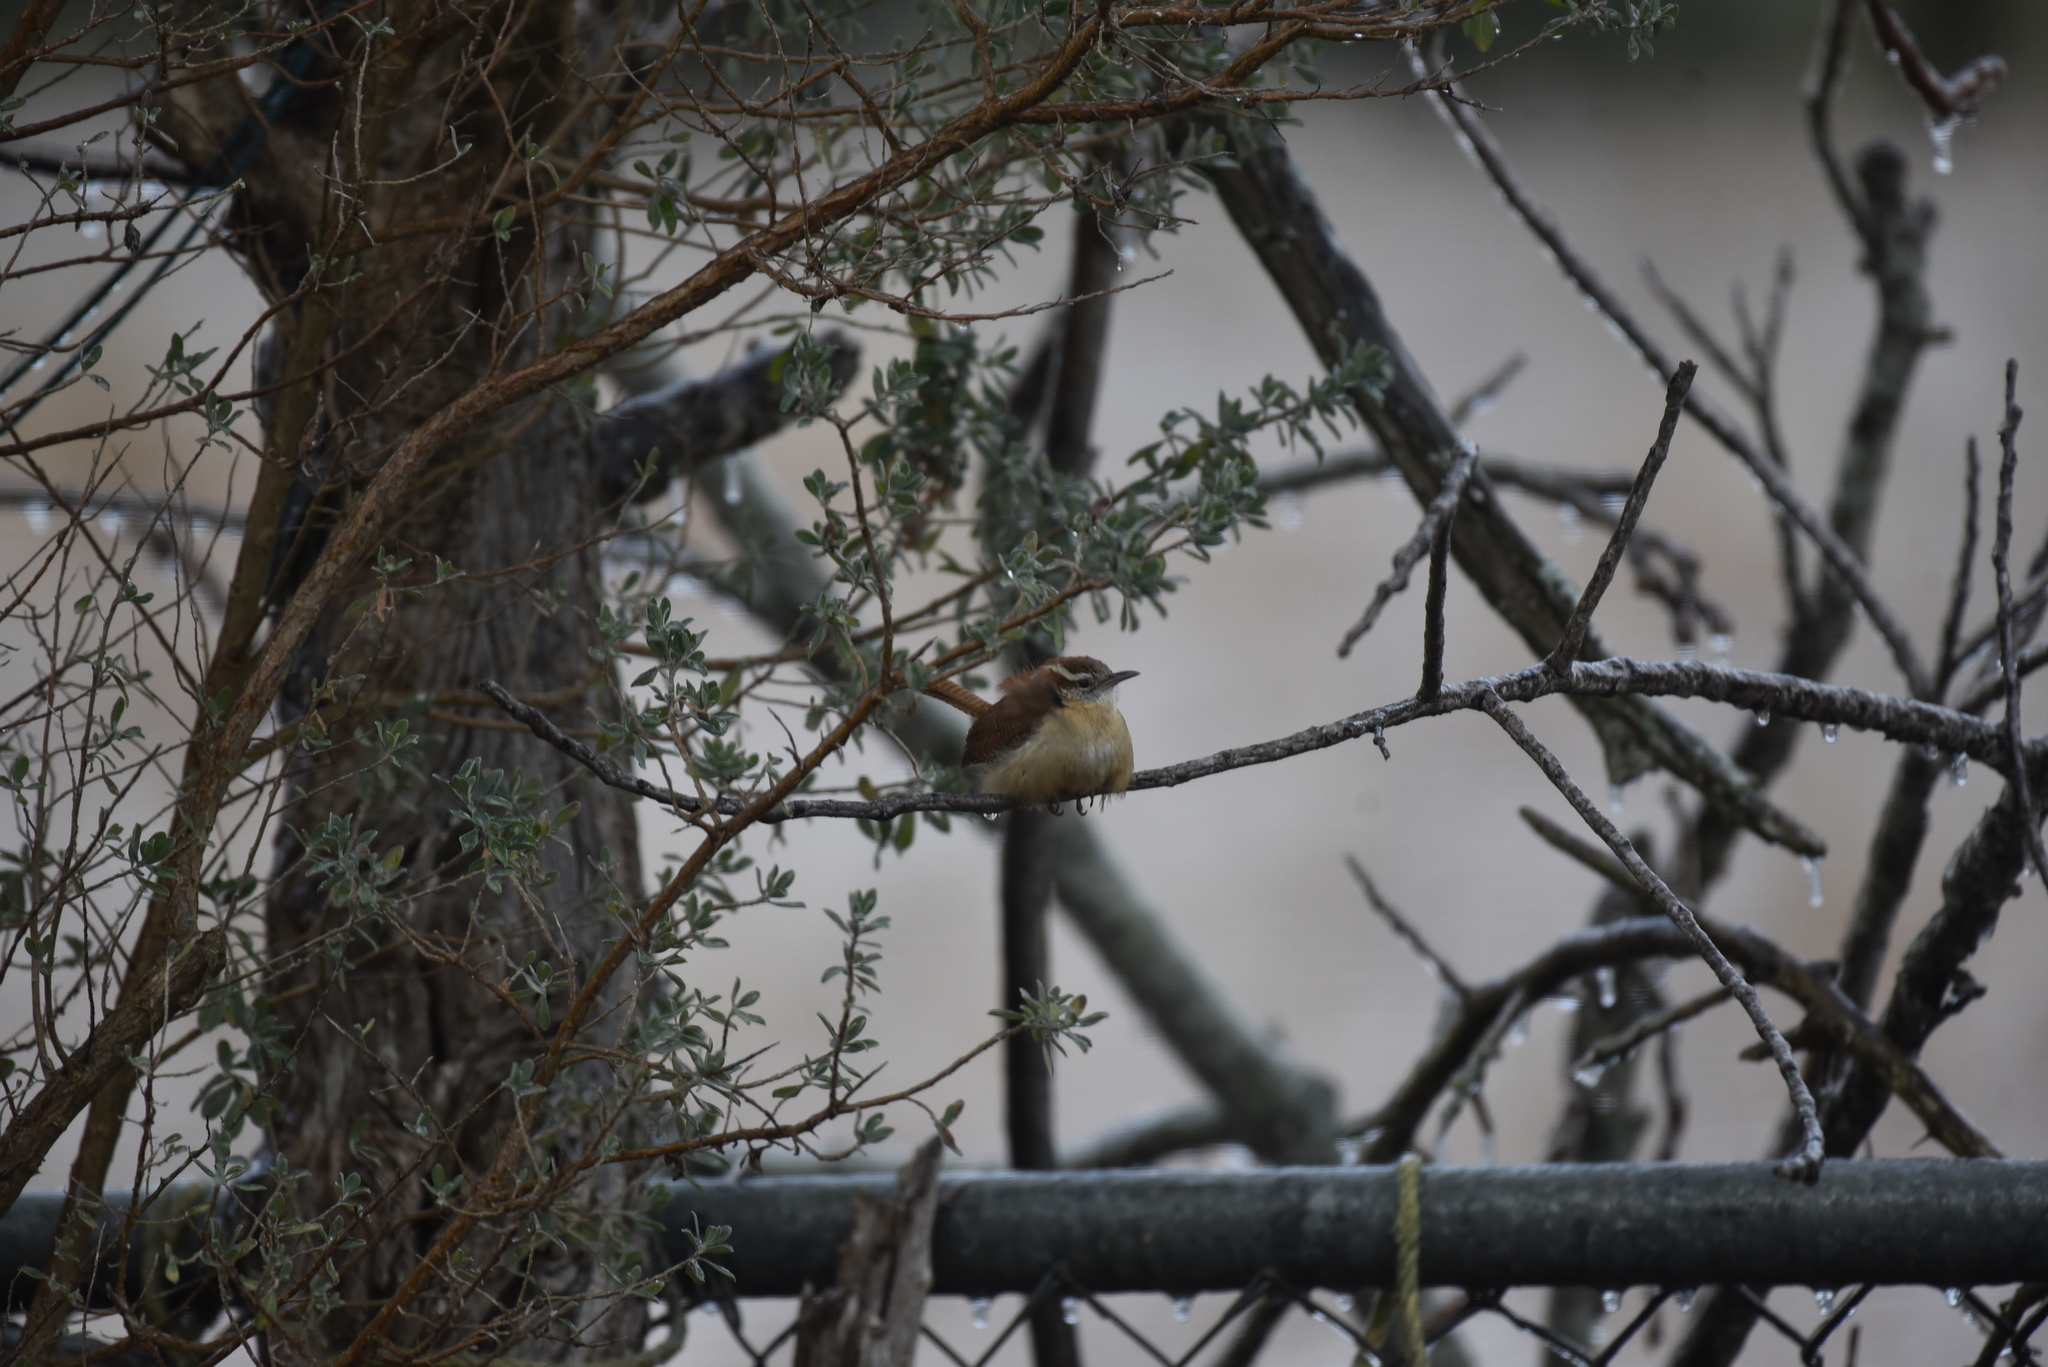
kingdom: Animalia
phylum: Chordata
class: Aves
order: Passeriformes
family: Troglodytidae
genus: Thryothorus
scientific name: Thryothorus ludovicianus
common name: Carolina wren
